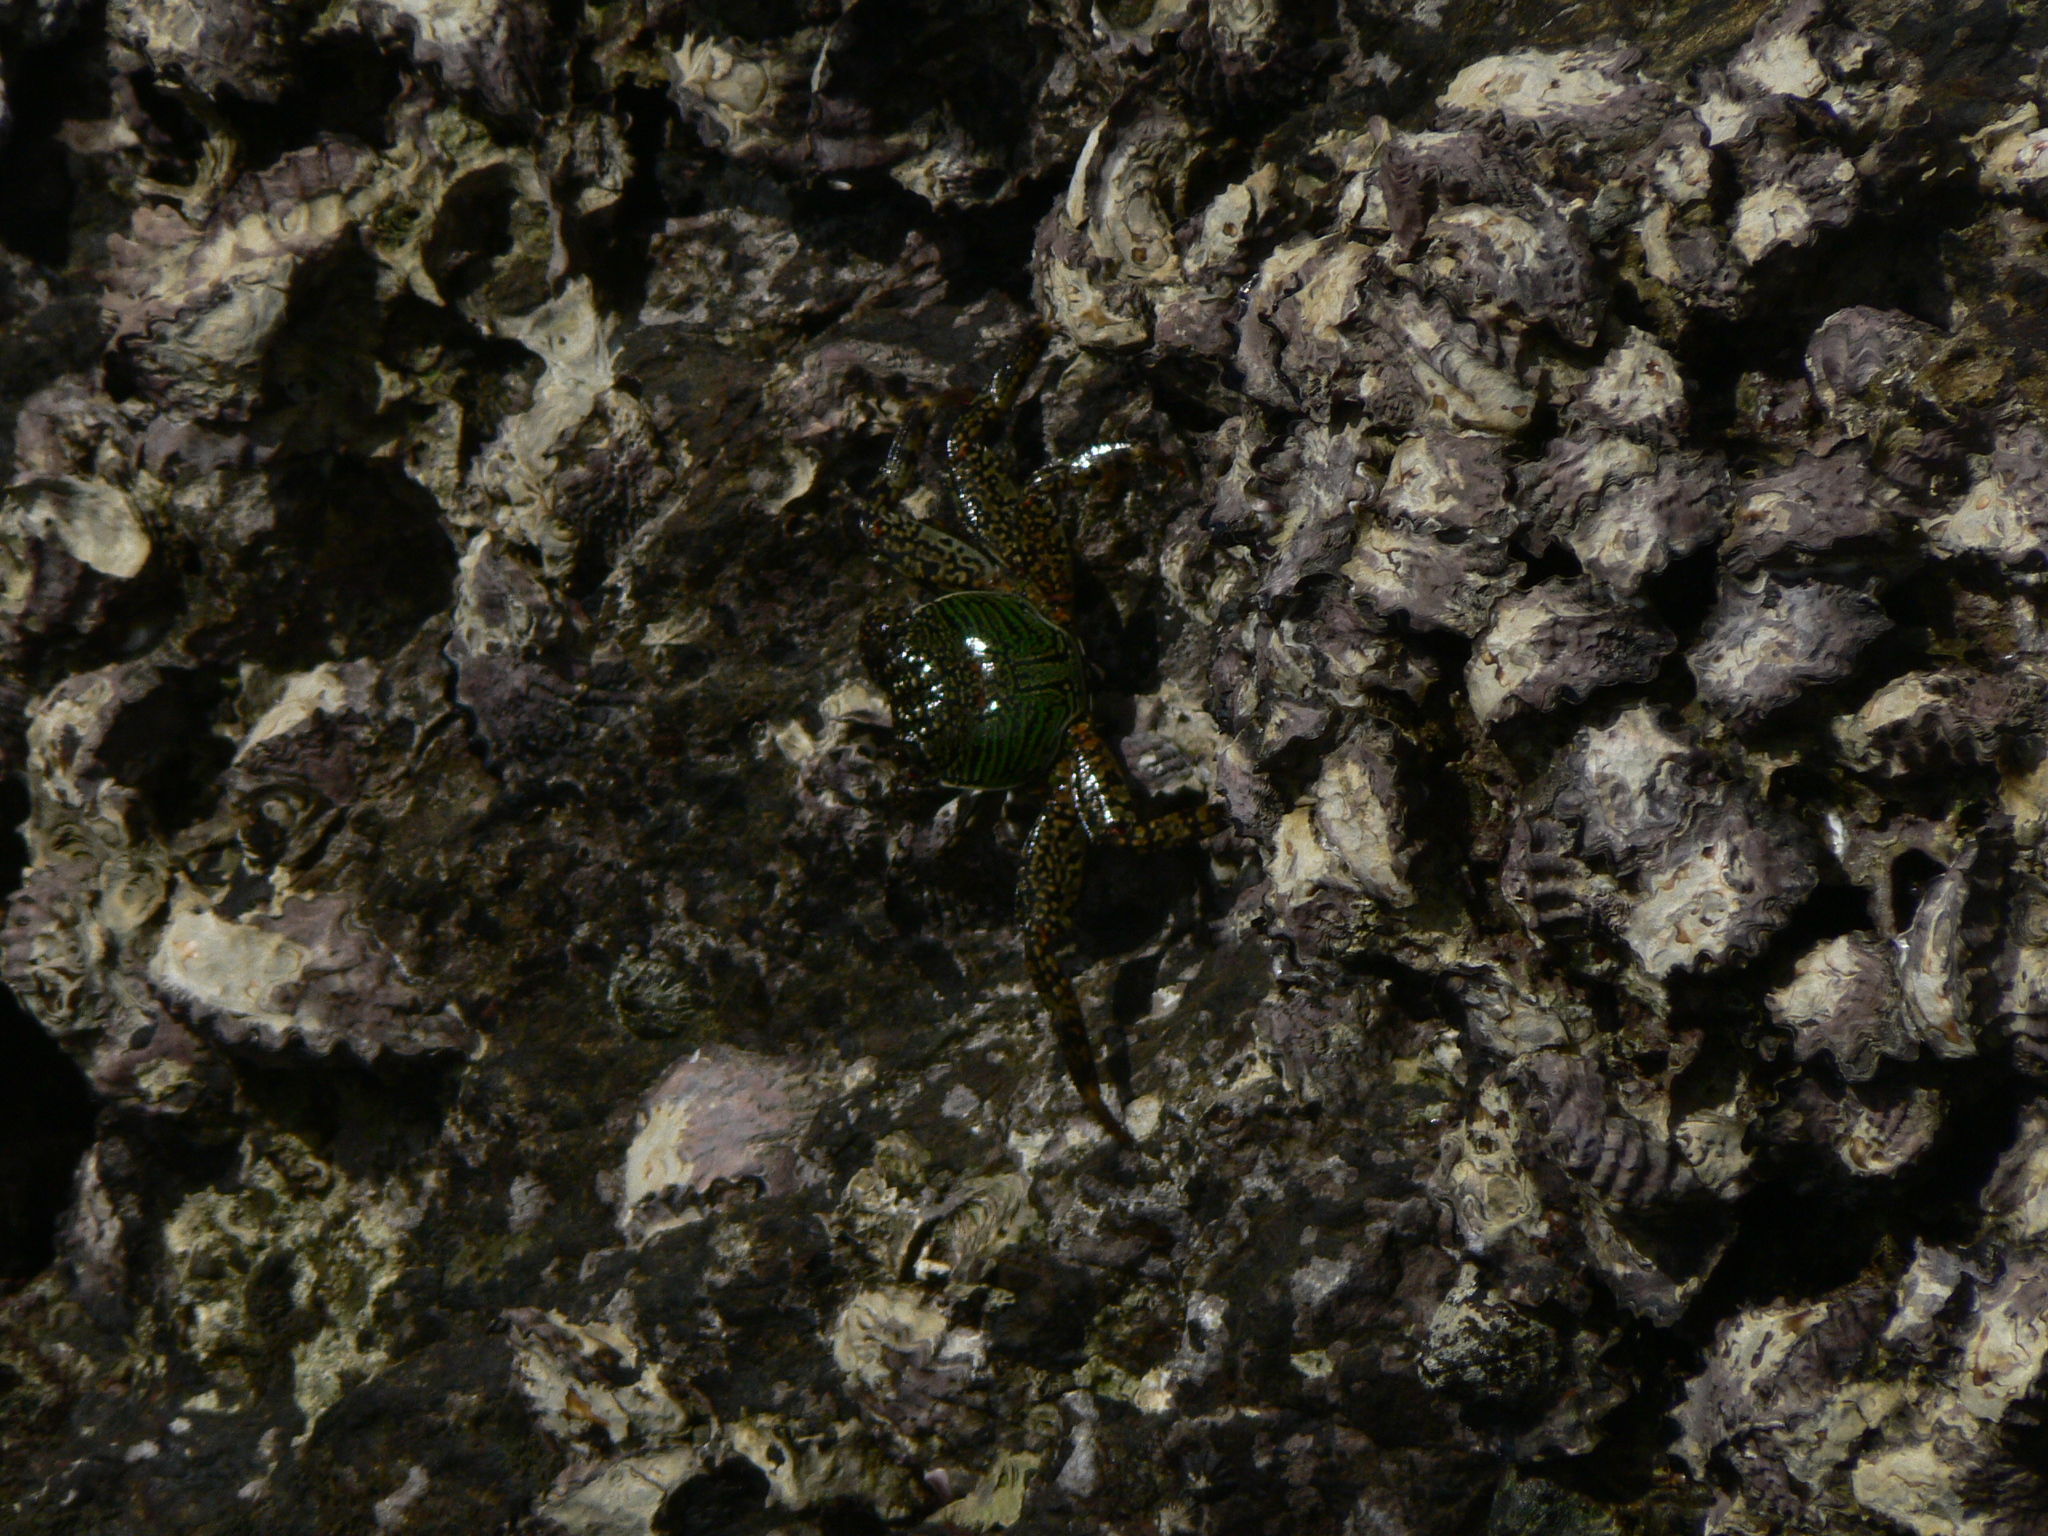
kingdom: Animalia
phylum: Arthropoda
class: Malacostraca
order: Decapoda
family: Grapsidae
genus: Grapsus
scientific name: Grapsus albolineatus
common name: Mottled lightfoot crab
